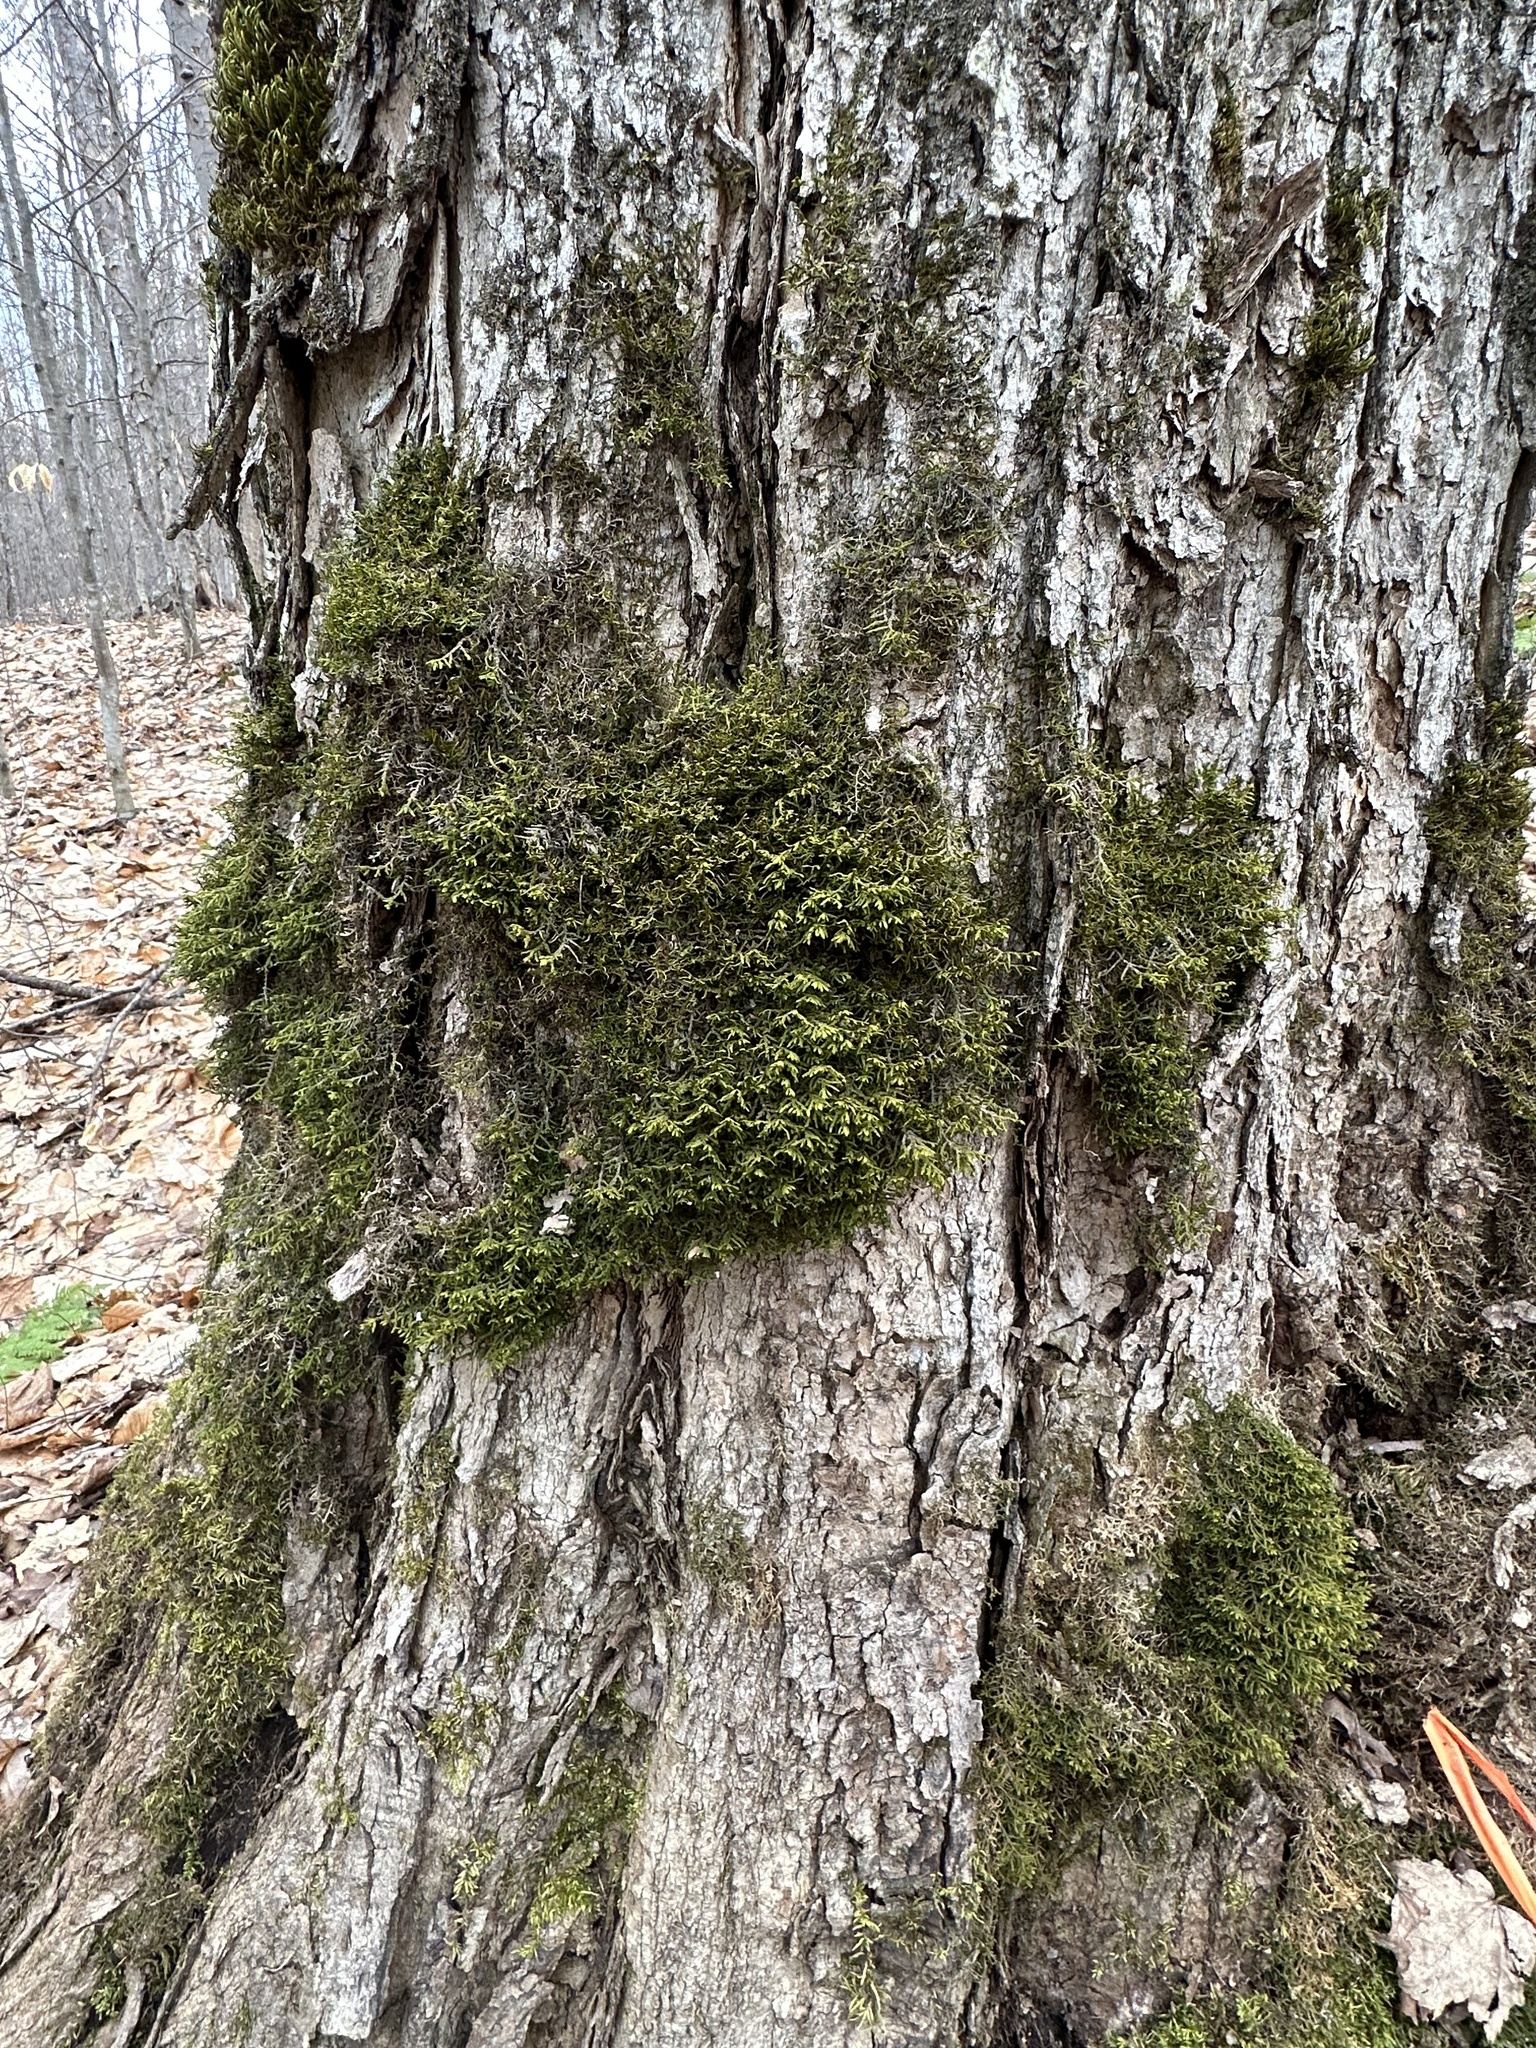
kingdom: Plantae
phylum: Marchantiophyta
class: Jungermanniopsida
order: Porellales
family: Porellaceae
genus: Porella
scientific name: Porella platyphylla
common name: Wall scalewort
